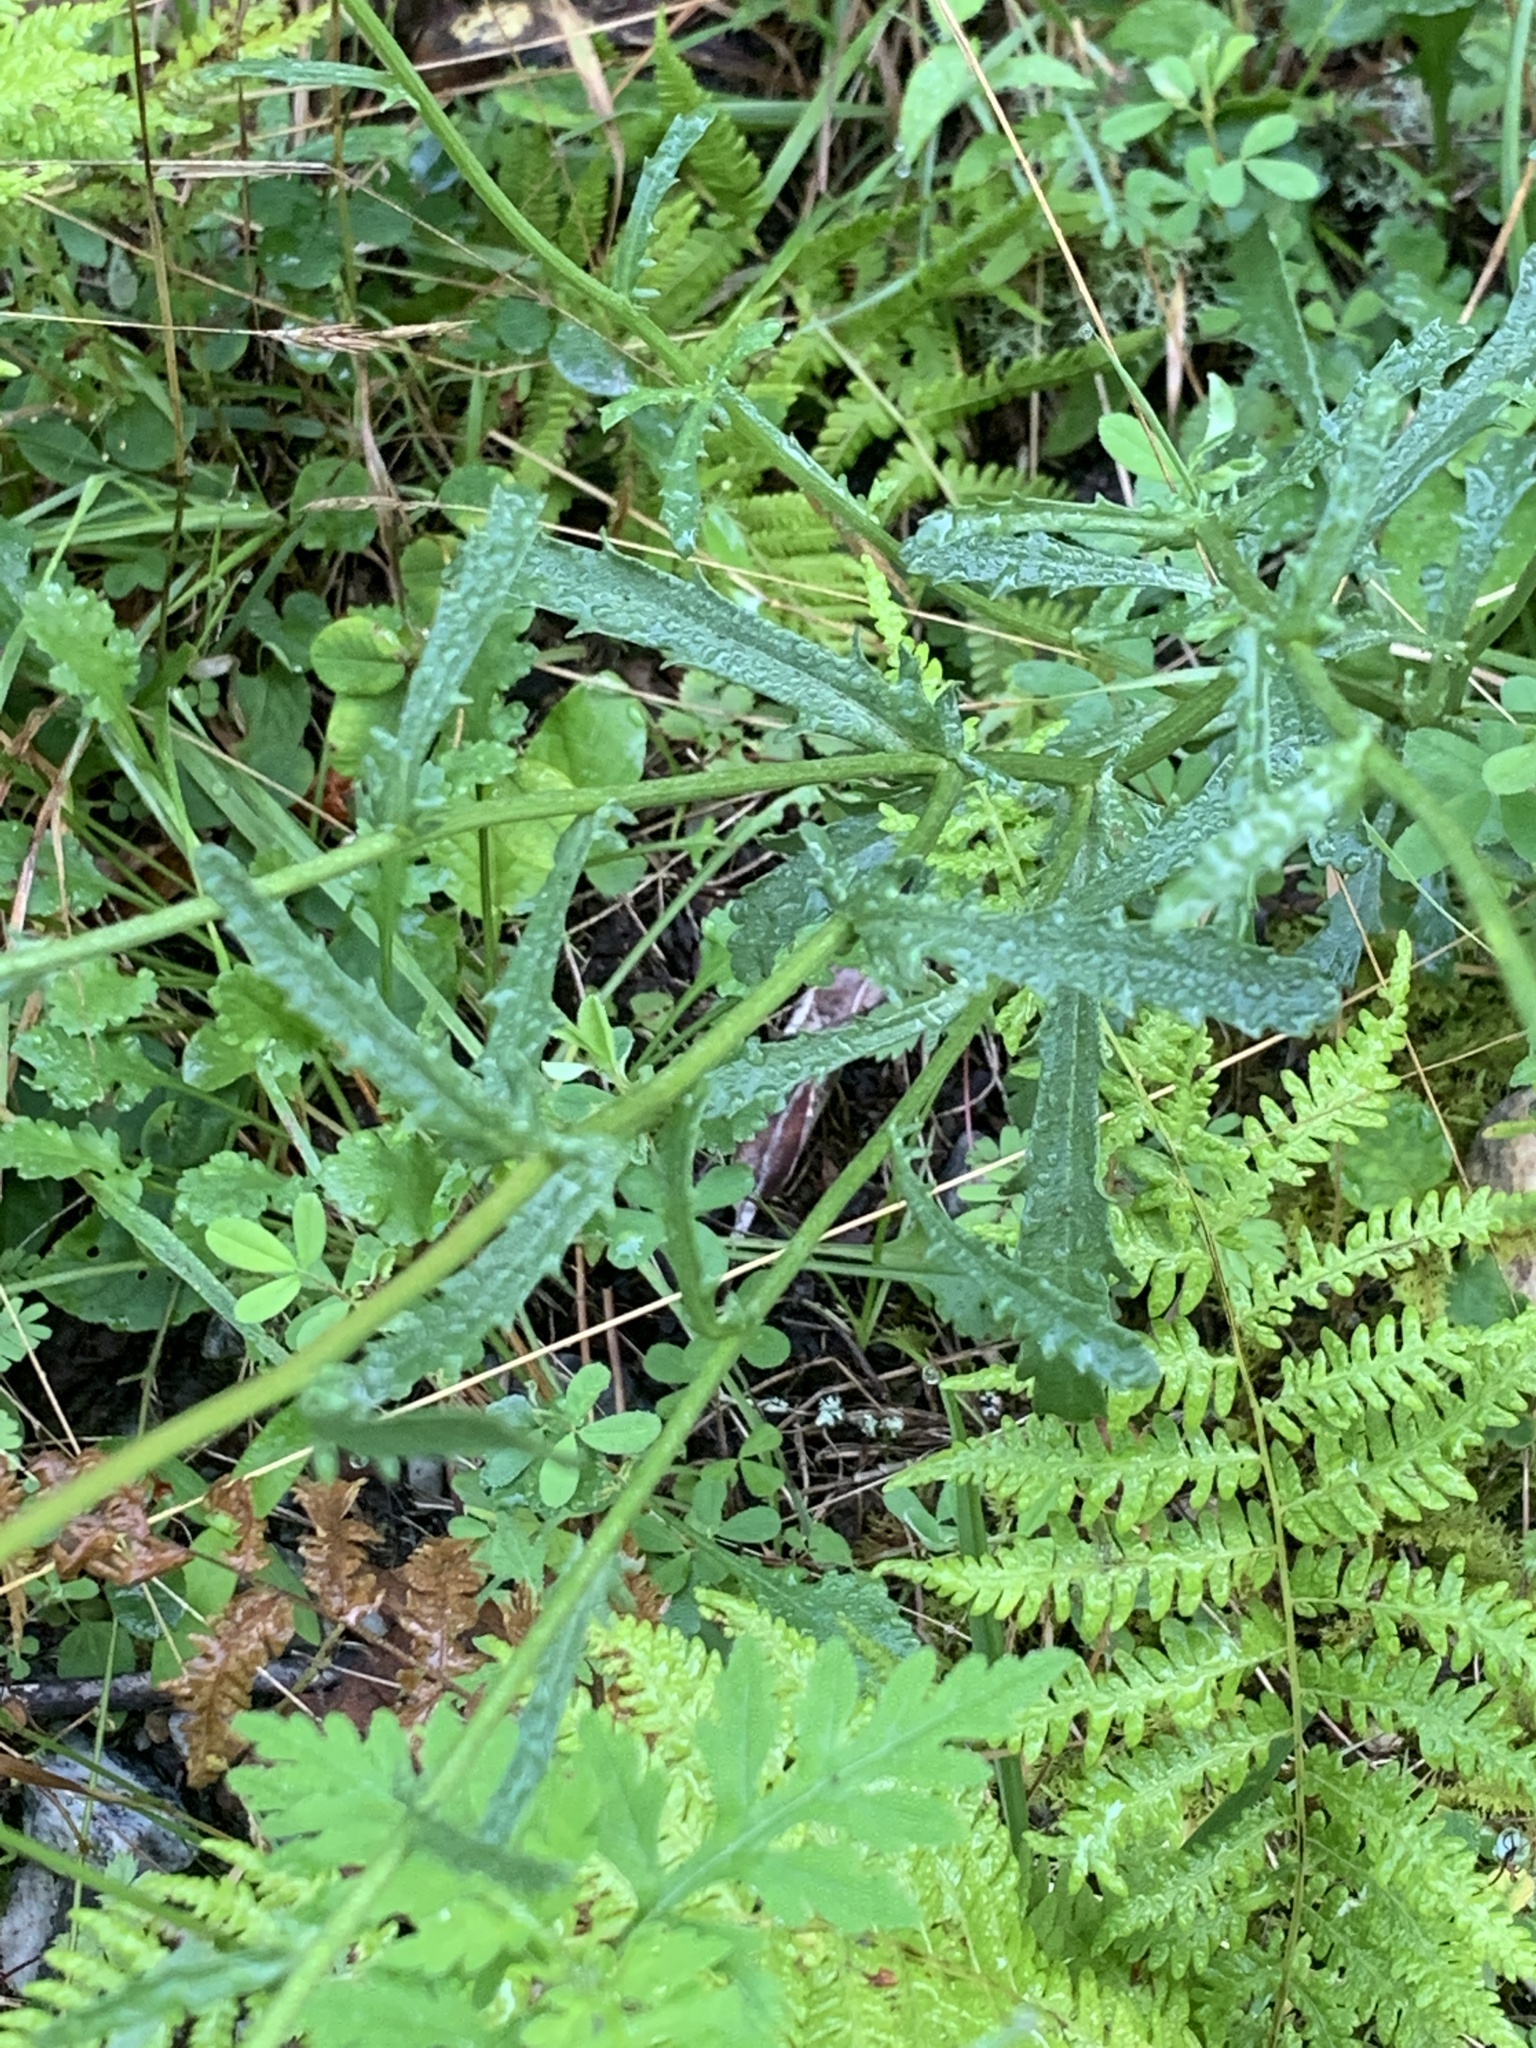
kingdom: Plantae
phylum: Tracheophyta
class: Magnoliopsida
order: Asterales
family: Asteraceae
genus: Leucanthemum
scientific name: Leucanthemum vulgare
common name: Oxeye daisy
